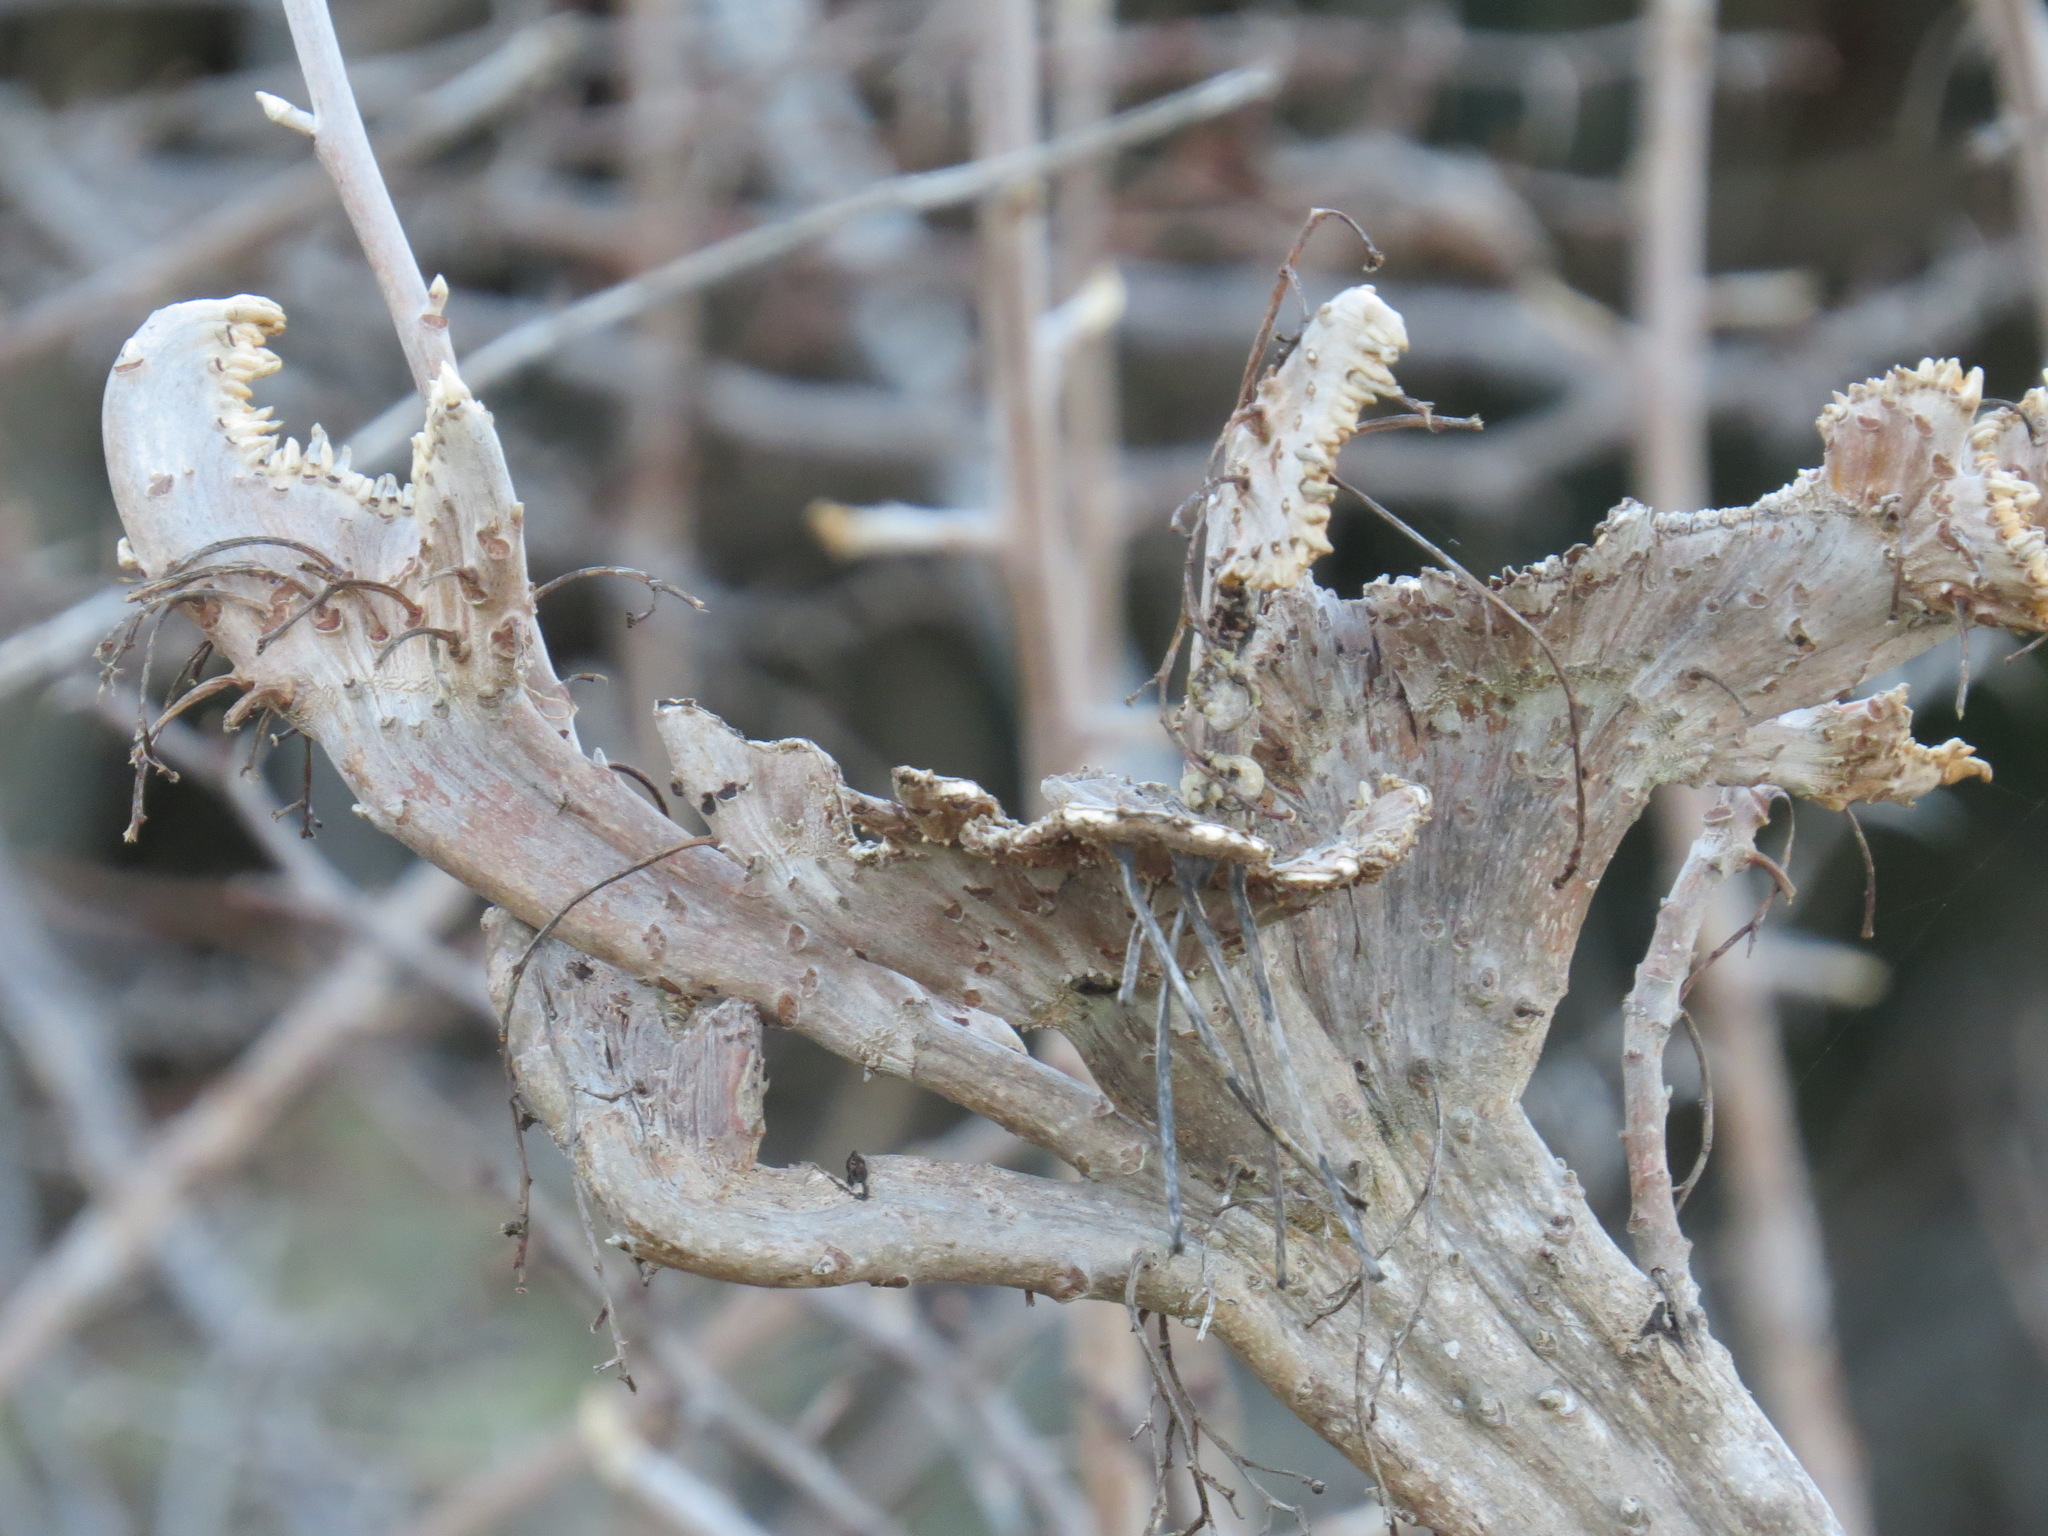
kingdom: Plantae
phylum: Tracheophyta
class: Magnoliopsida
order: Sapindales
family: Anacardiaceae
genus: Toxicodendron
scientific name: Toxicodendron diversilobum
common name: Pacific poison-oak
